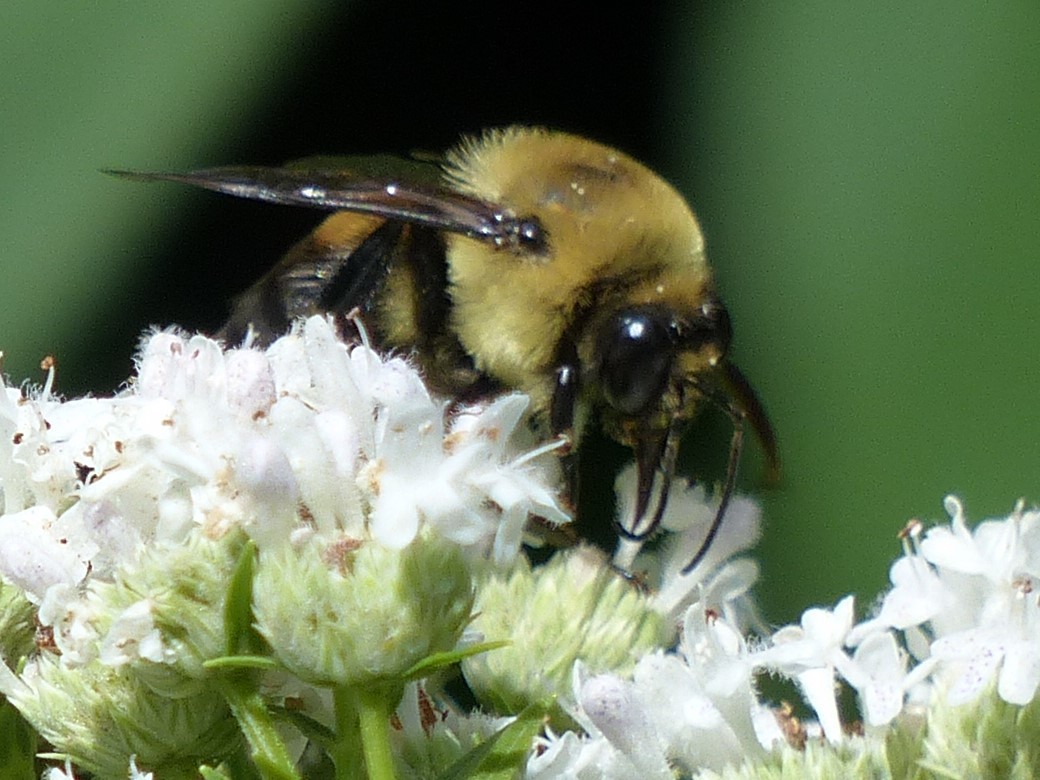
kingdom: Animalia
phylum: Arthropoda
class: Insecta
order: Hymenoptera
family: Apidae
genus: Bombus
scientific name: Bombus griseocollis
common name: Brown-belted bumble bee
